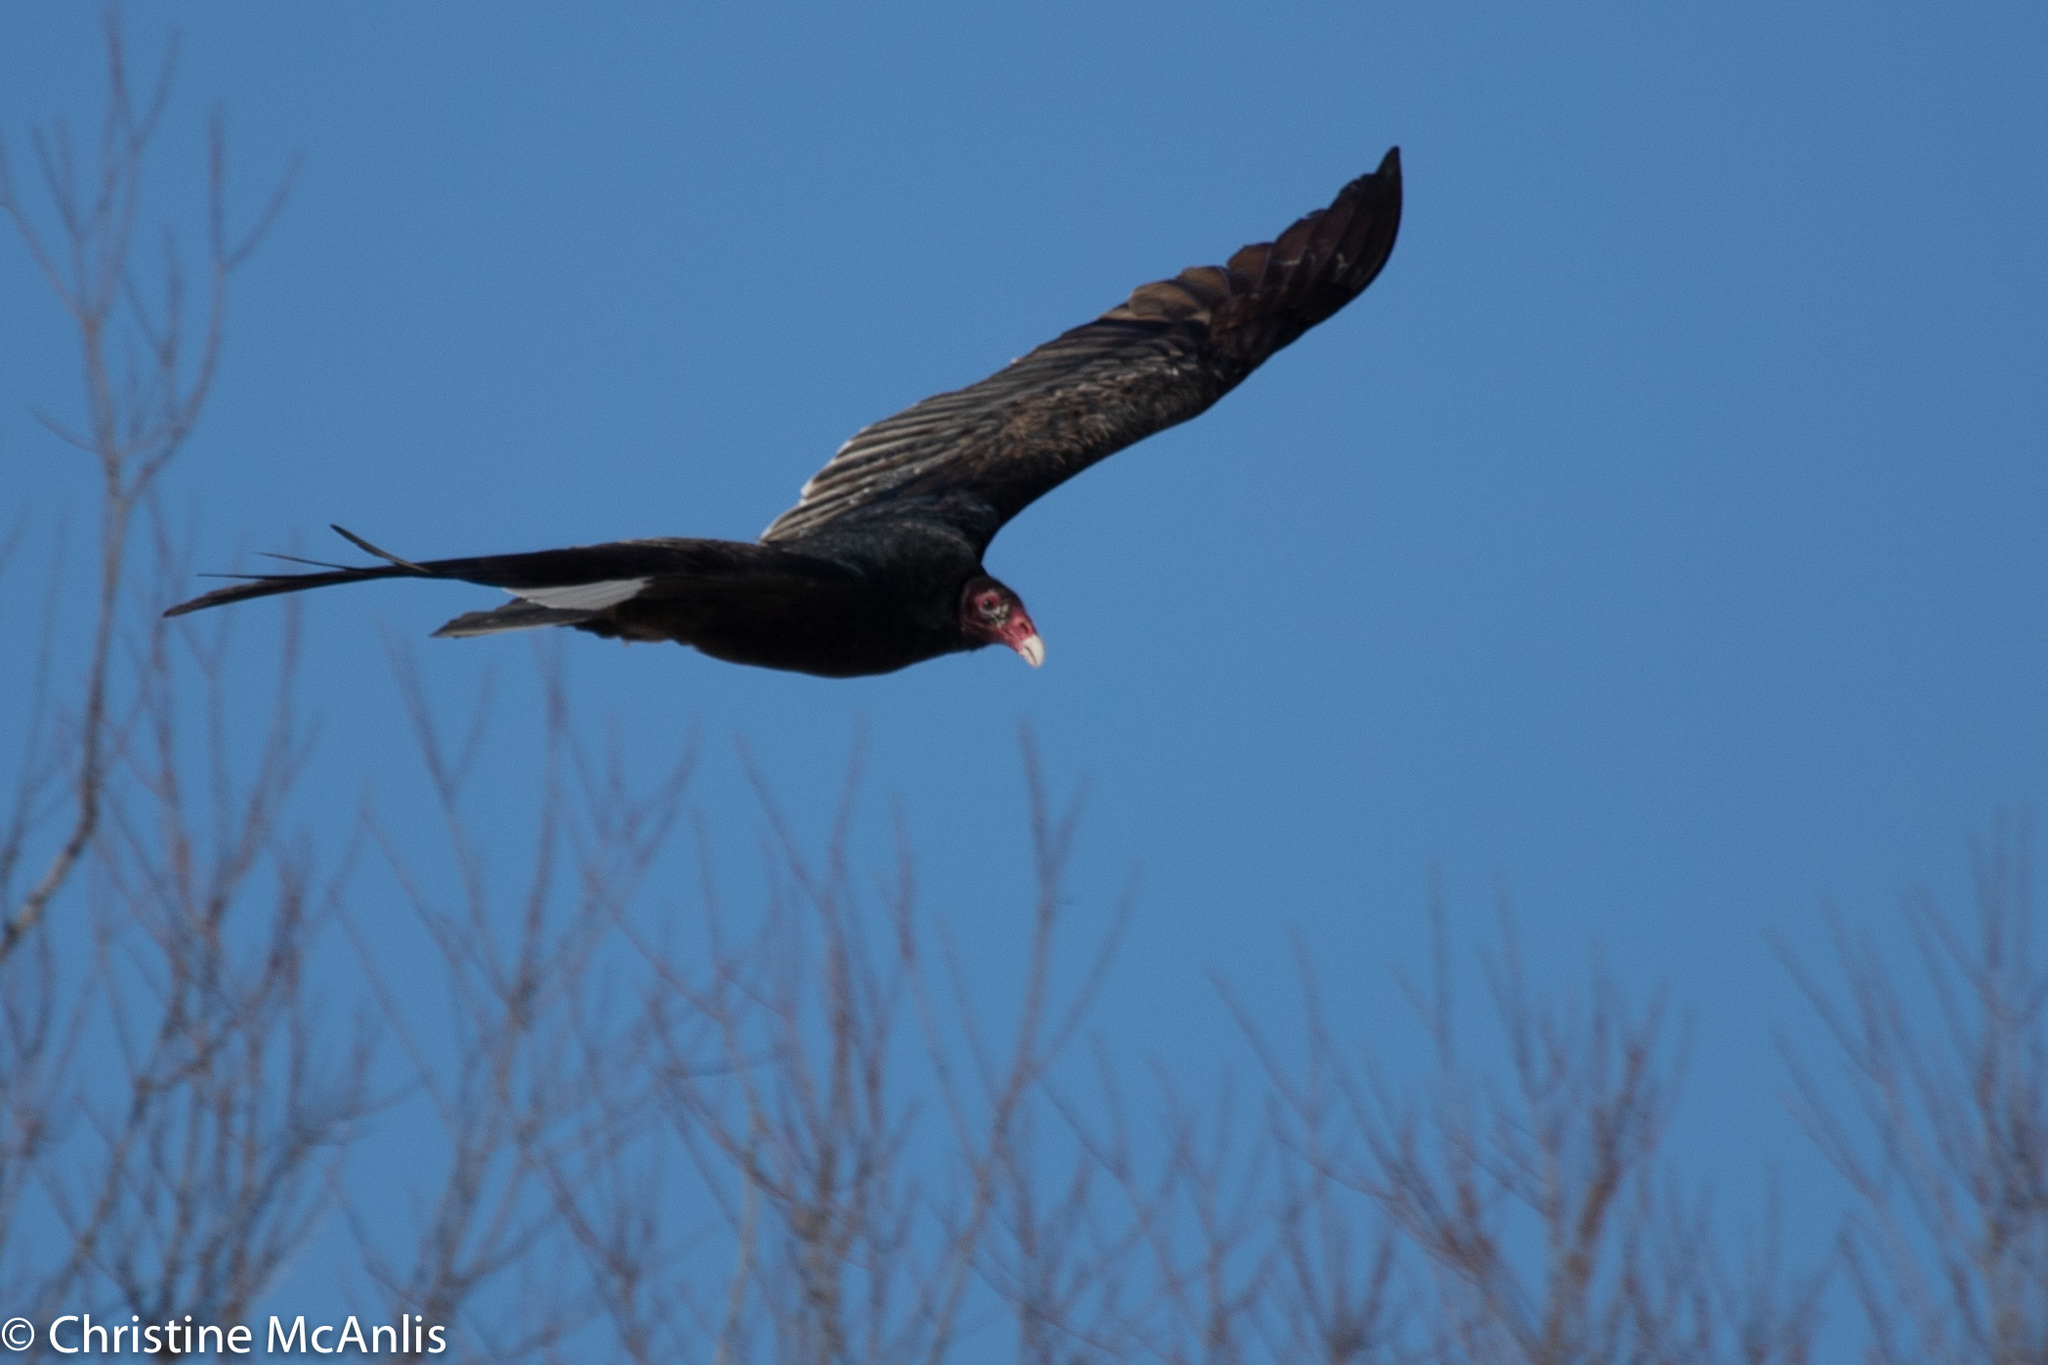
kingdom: Animalia
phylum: Chordata
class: Aves
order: Accipitriformes
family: Cathartidae
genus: Cathartes
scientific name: Cathartes aura
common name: Turkey vulture
